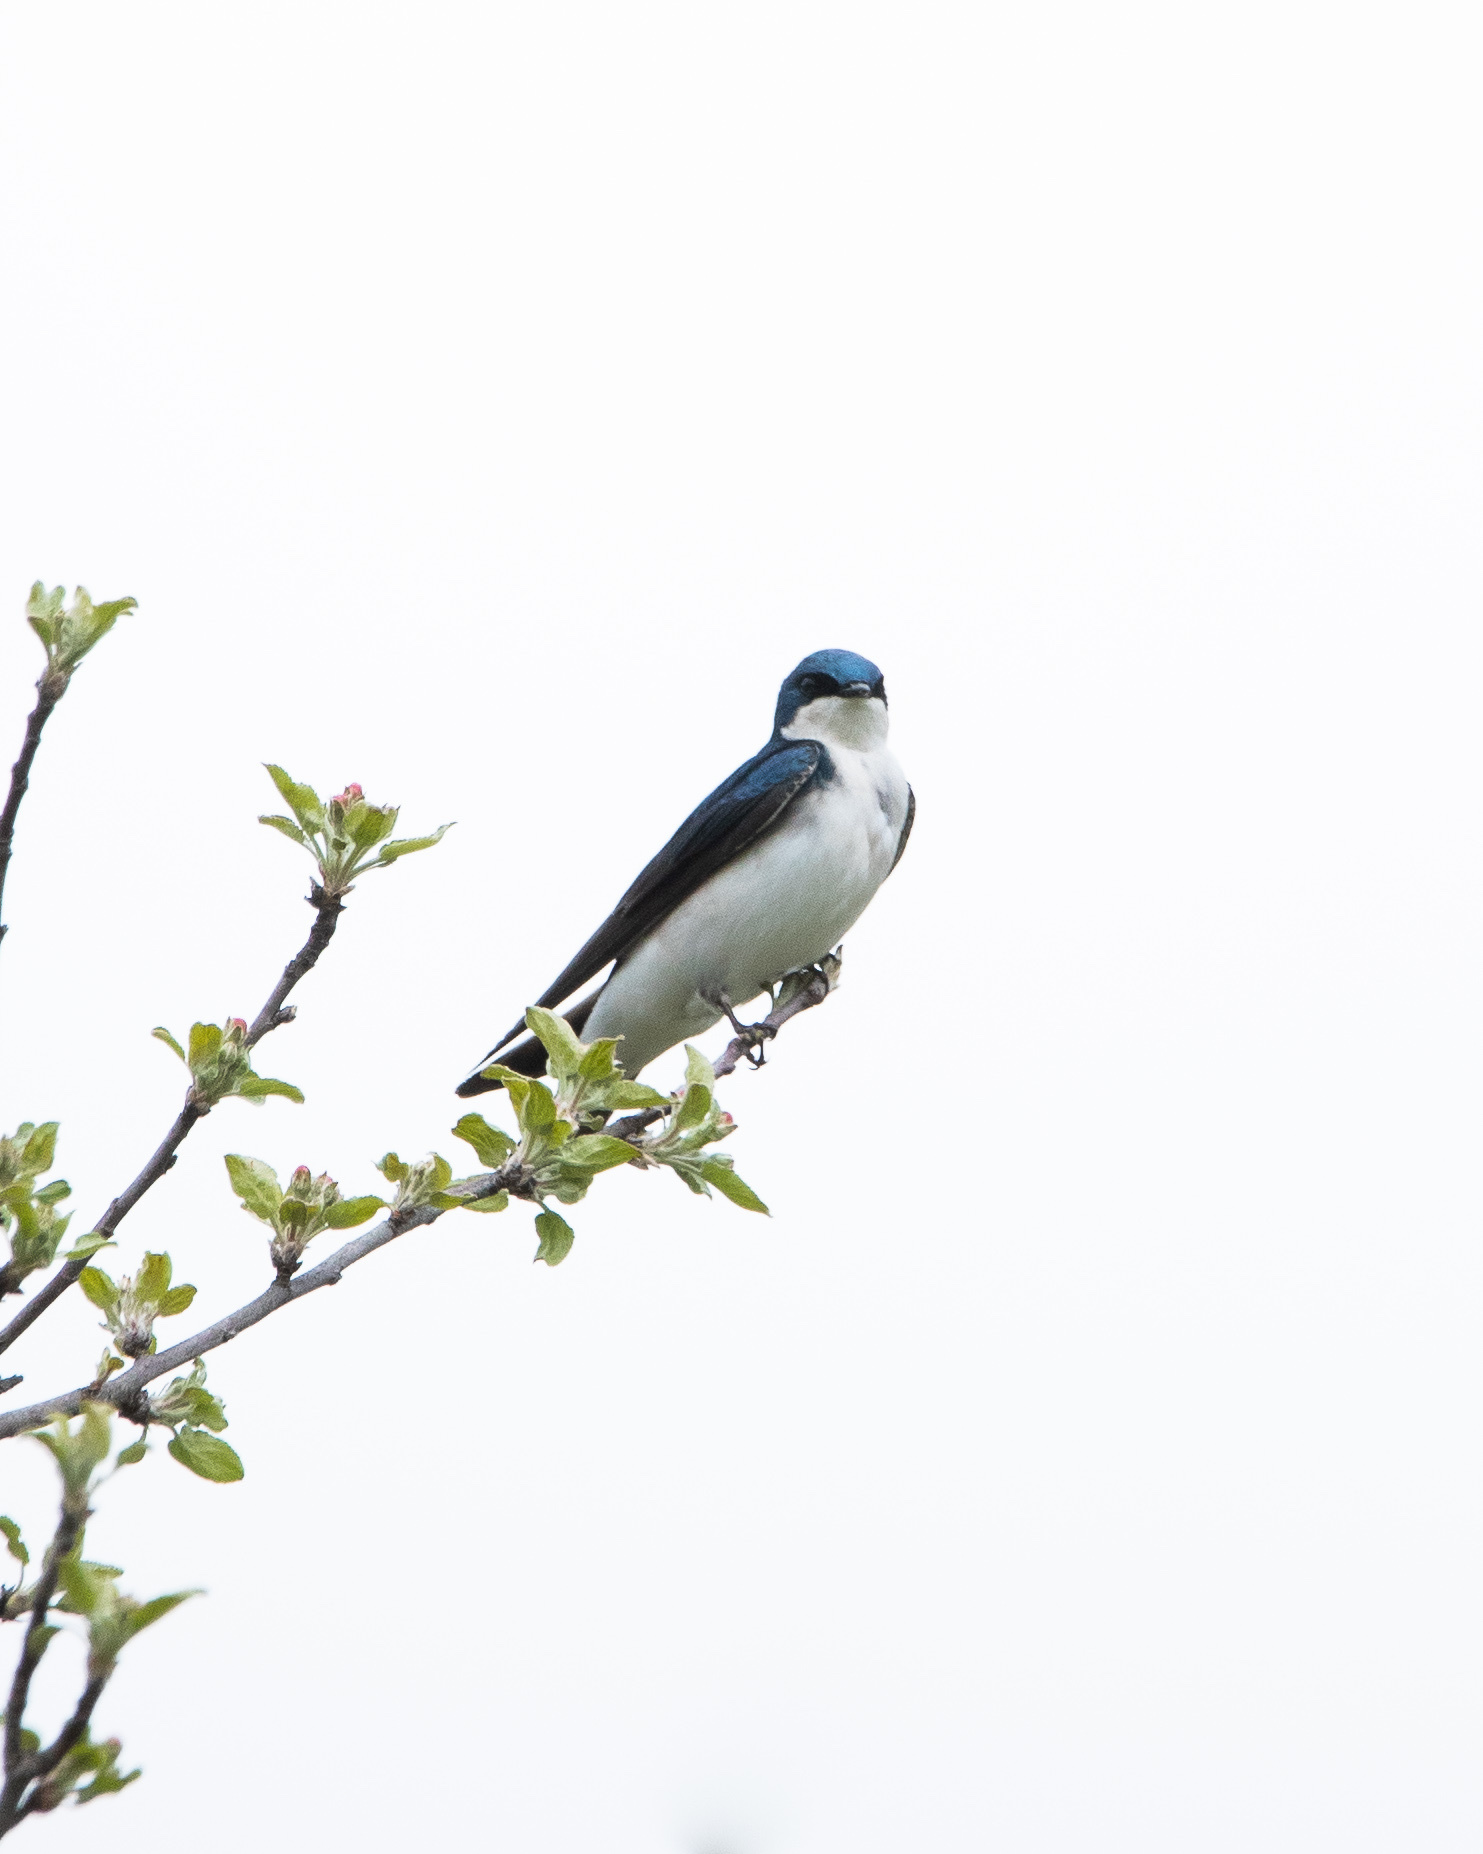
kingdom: Animalia
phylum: Chordata
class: Aves
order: Passeriformes
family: Hirundinidae
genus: Tachycineta
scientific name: Tachycineta bicolor
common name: Tree swallow
